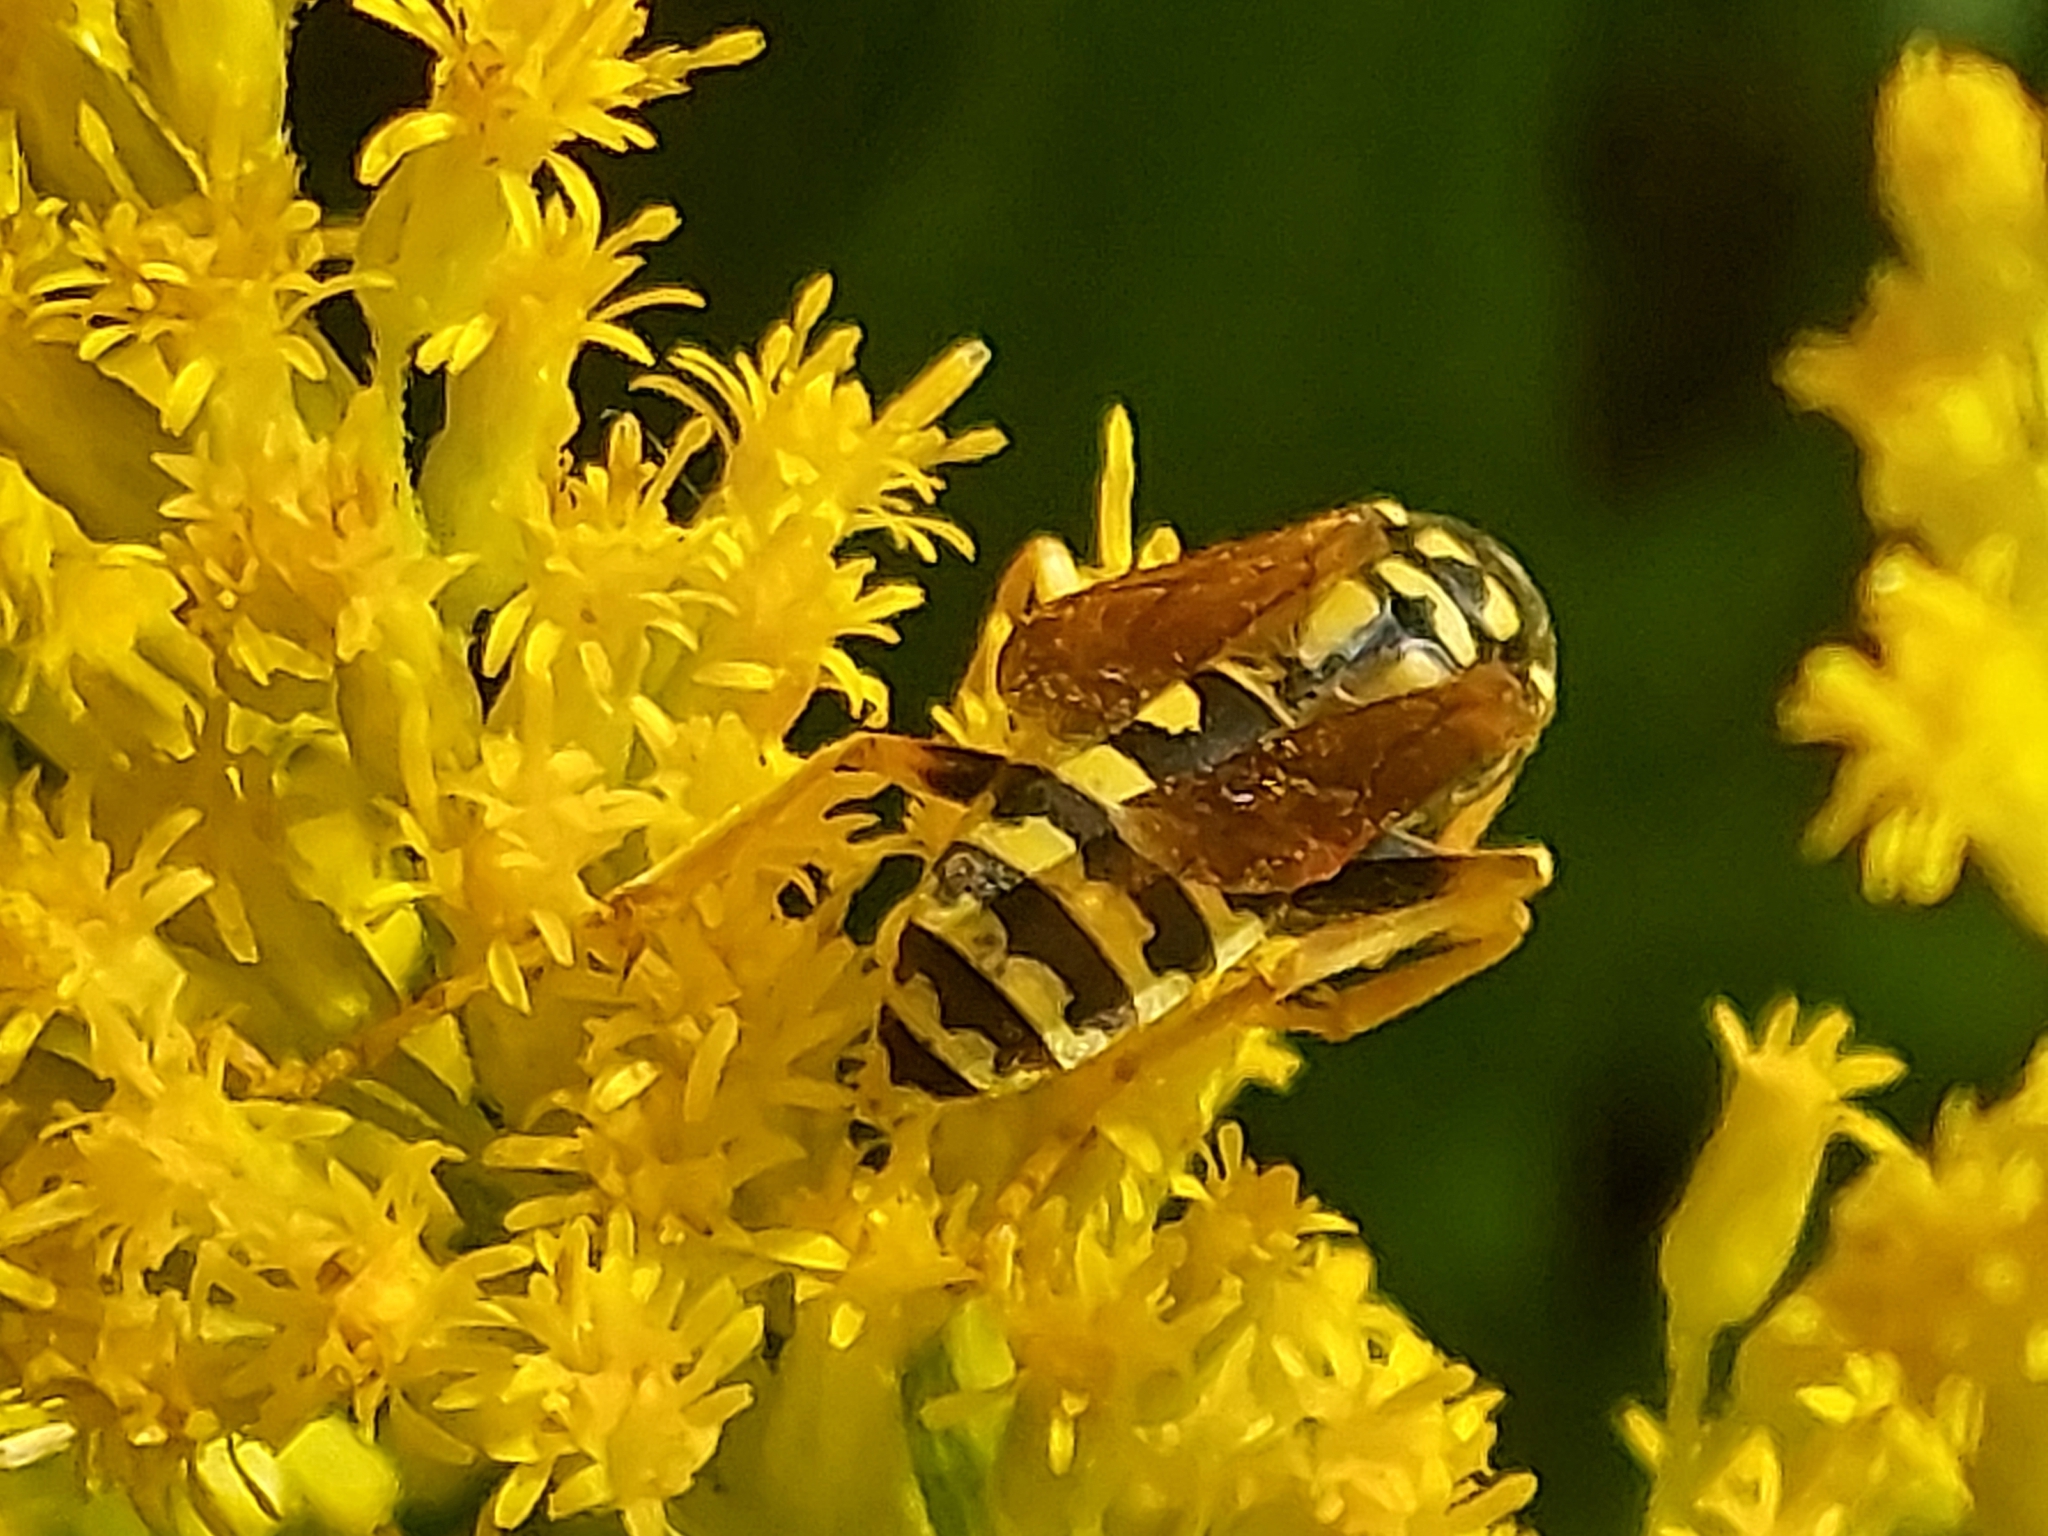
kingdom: Animalia
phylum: Arthropoda
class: Insecta
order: Hymenoptera
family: Eumenidae
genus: Polistes
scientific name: Polistes dominula
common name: Paper wasp
